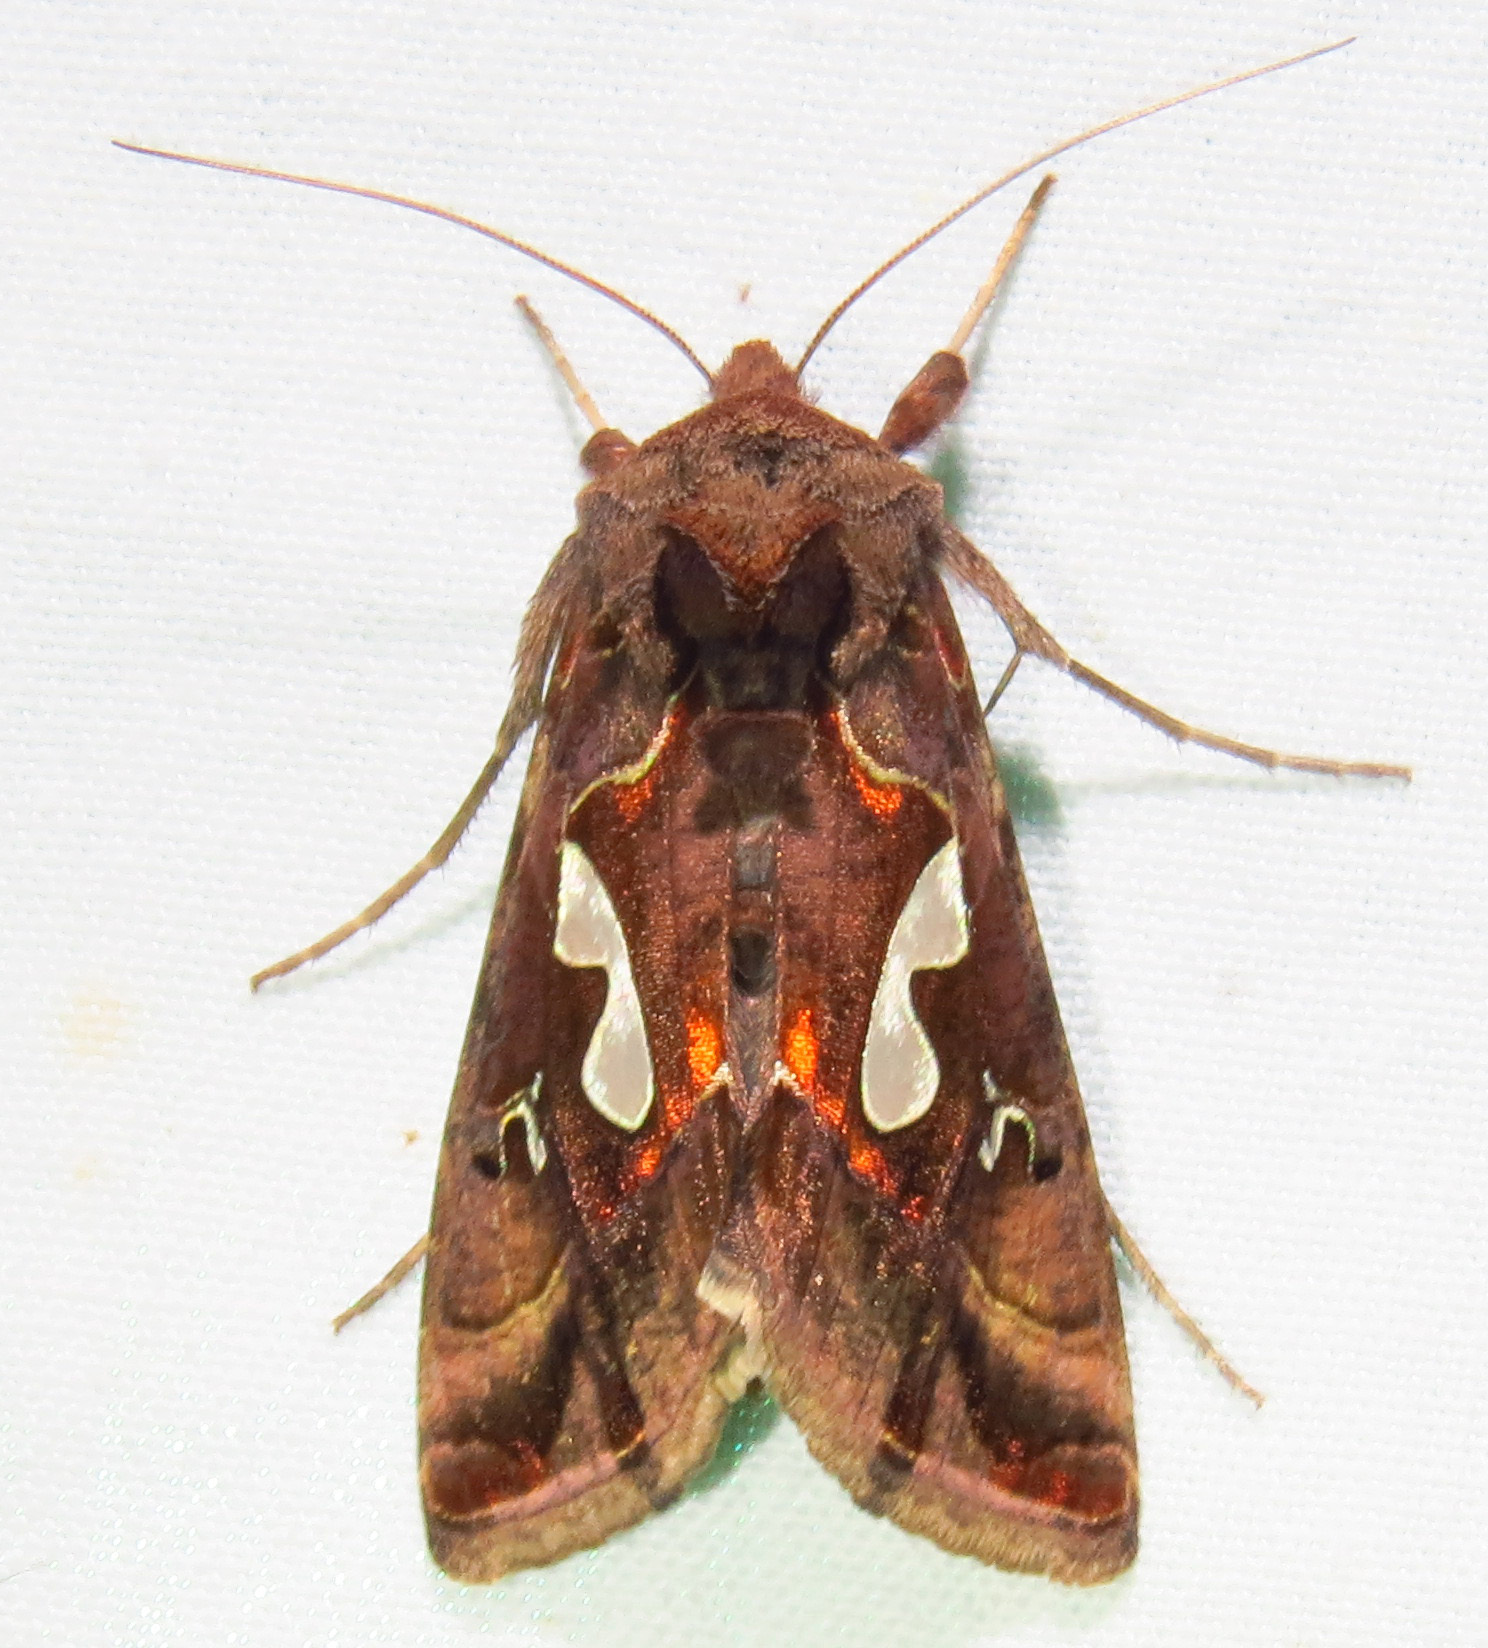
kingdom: Animalia
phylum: Arthropoda
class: Insecta
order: Lepidoptera
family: Noctuidae
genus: Megalographa
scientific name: Megalographa biloba
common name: Cutworm
